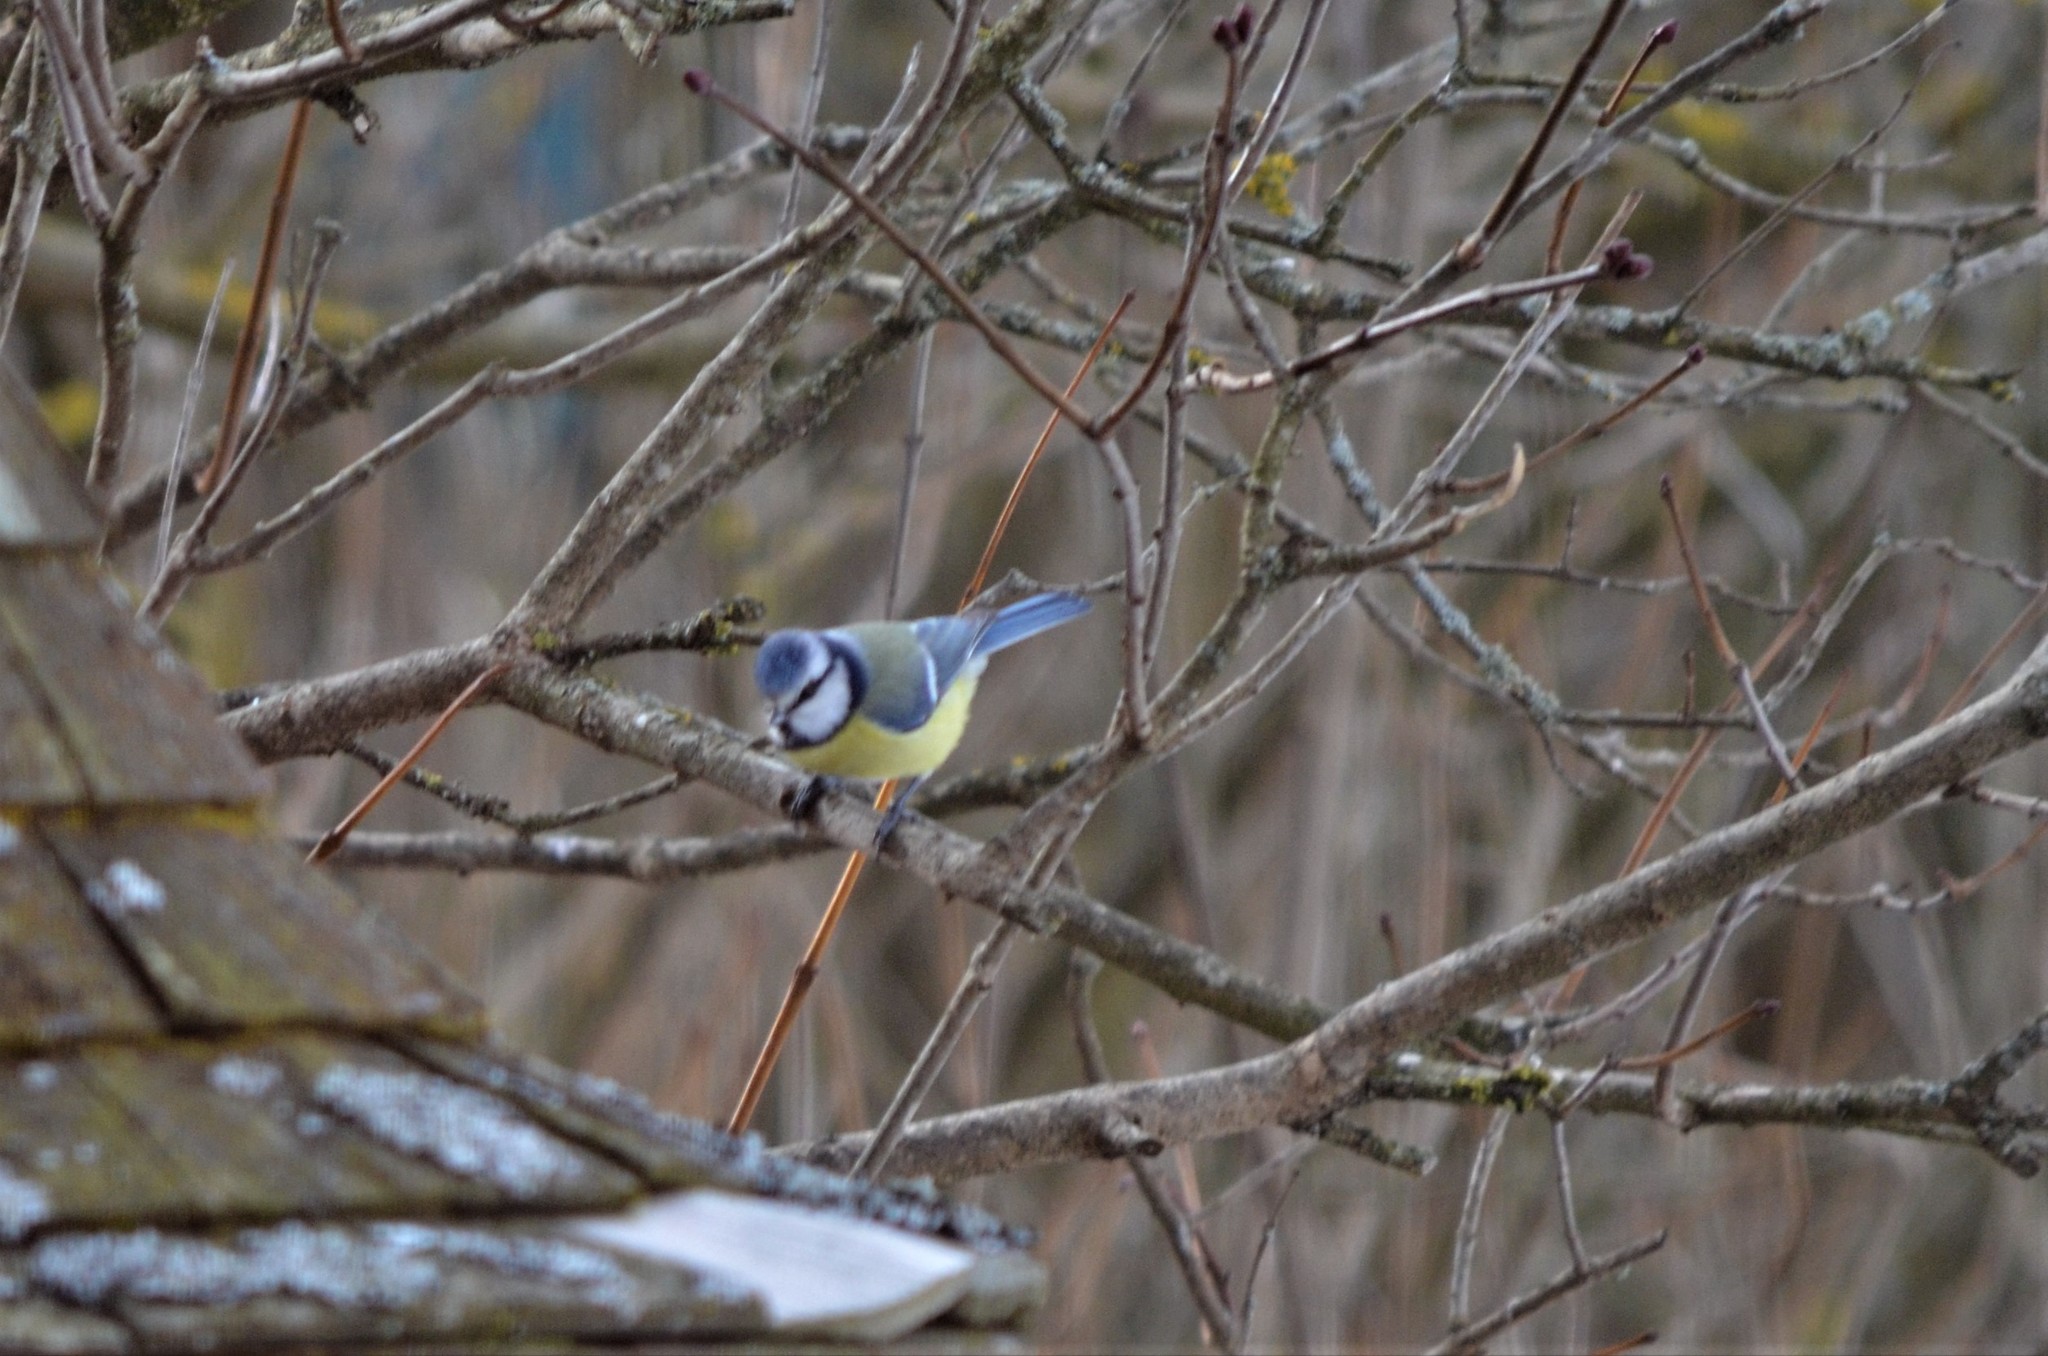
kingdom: Animalia
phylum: Chordata
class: Aves
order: Passeriformes
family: Paridae
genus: Cyanistes
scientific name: Cyanistes caeruleus
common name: Eurasian blue tit
